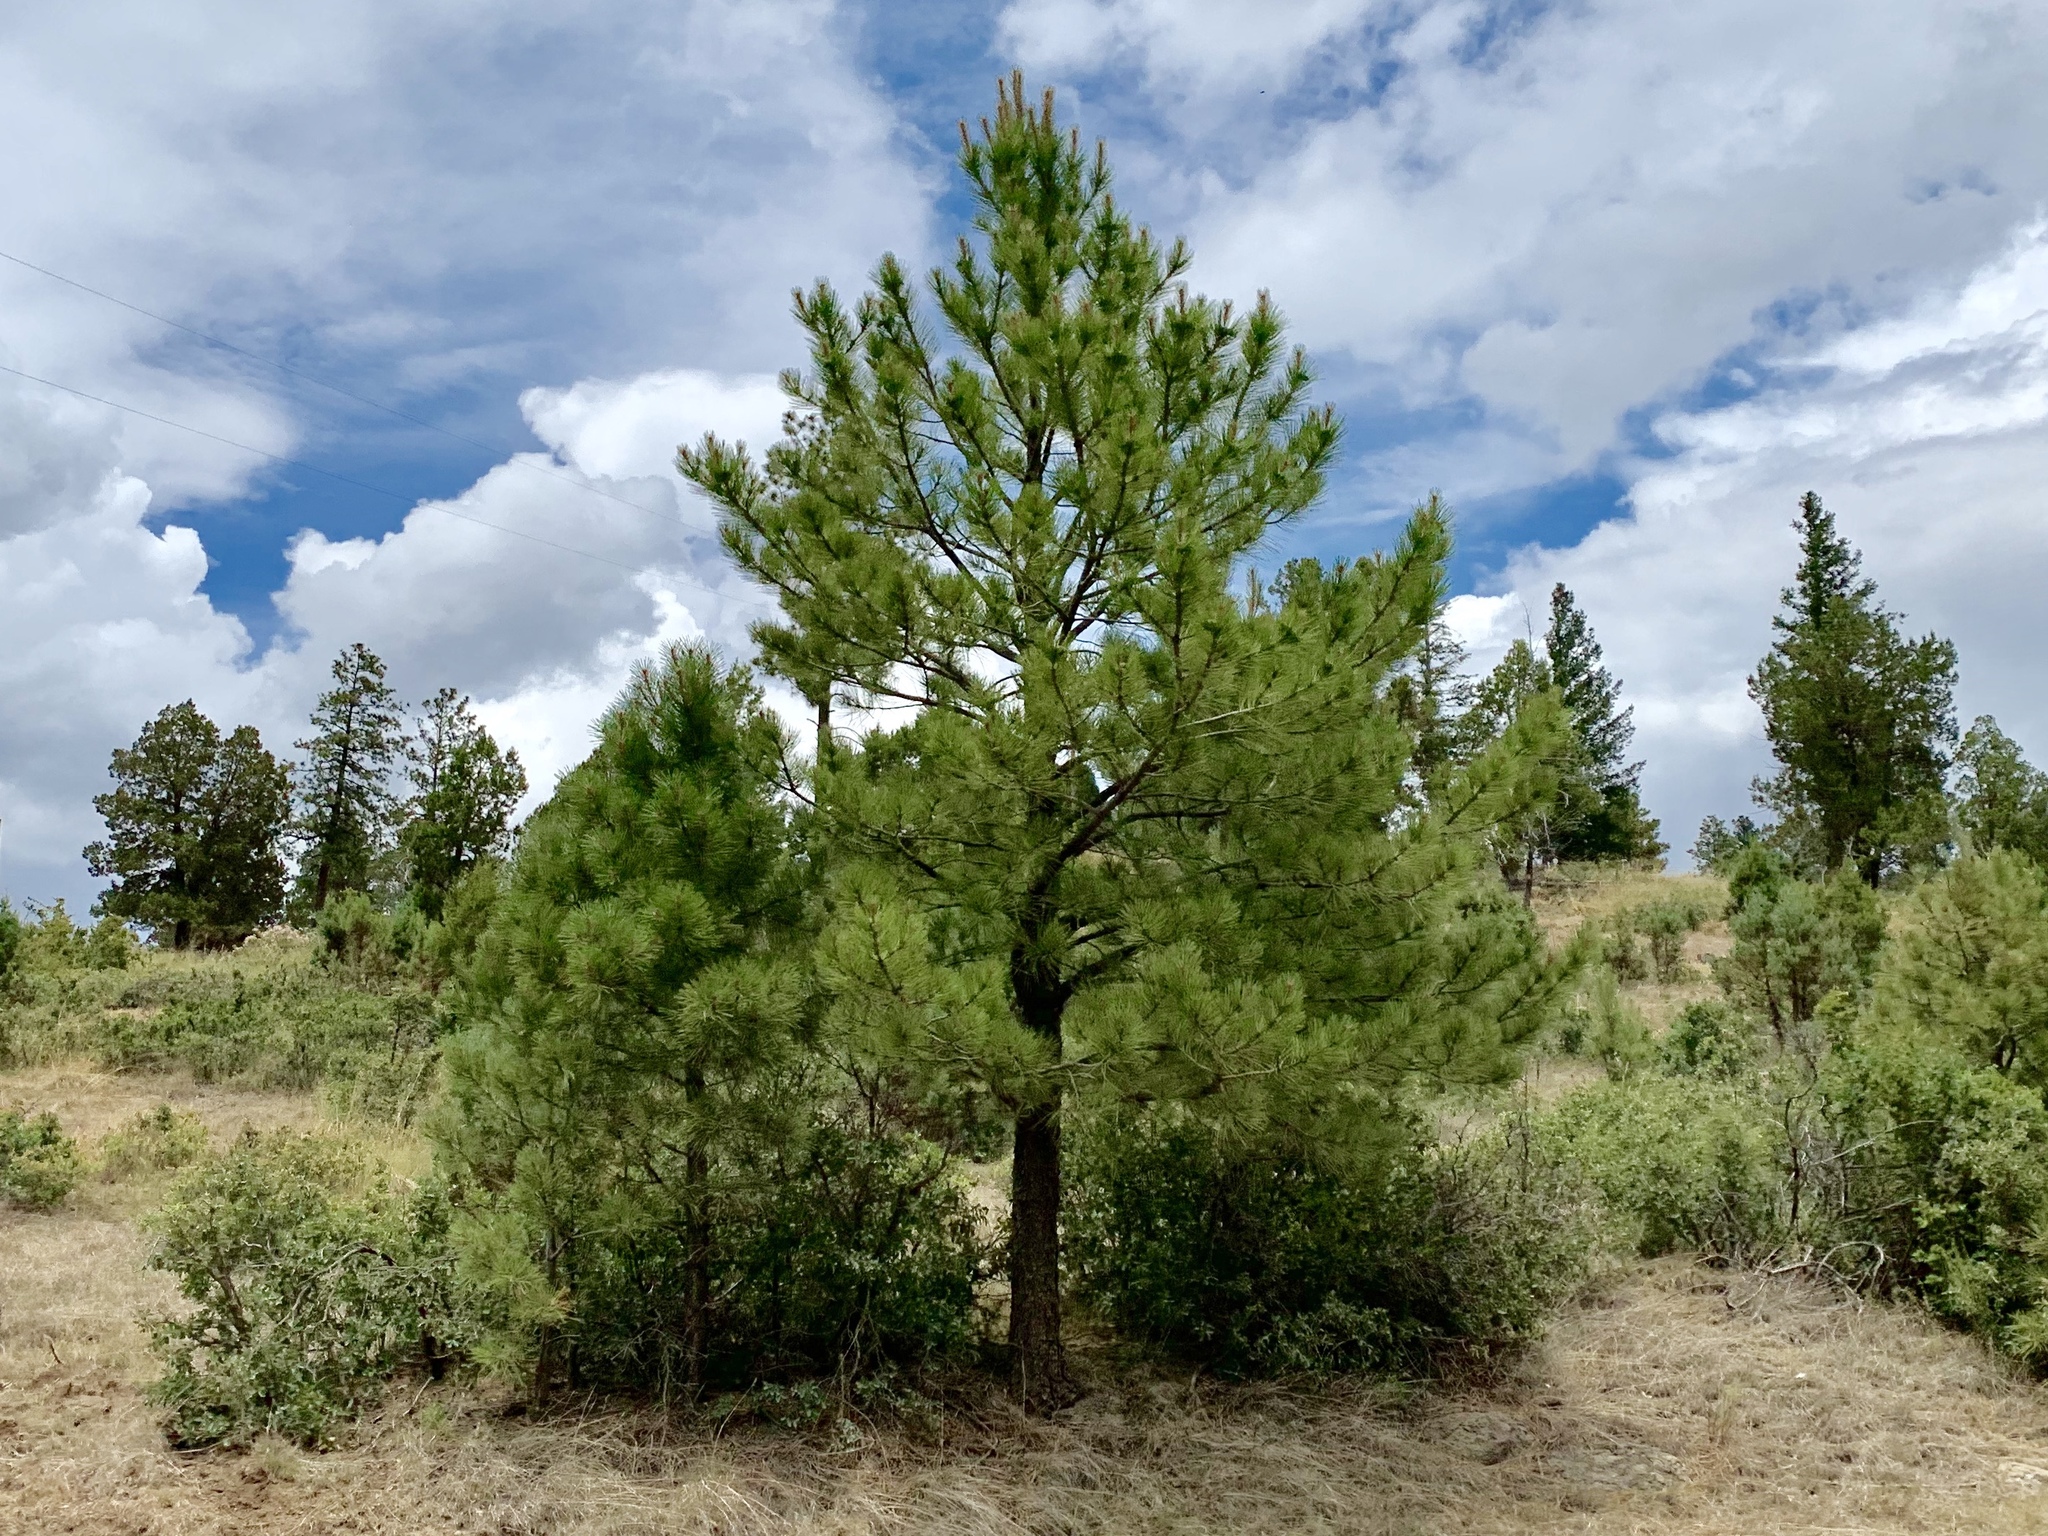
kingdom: Plantae
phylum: Tracheophyta
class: Pinopsida
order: Pinales
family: Pinaceae
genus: Pinus
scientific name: Pinus ponderosa
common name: Western yellow-pine
